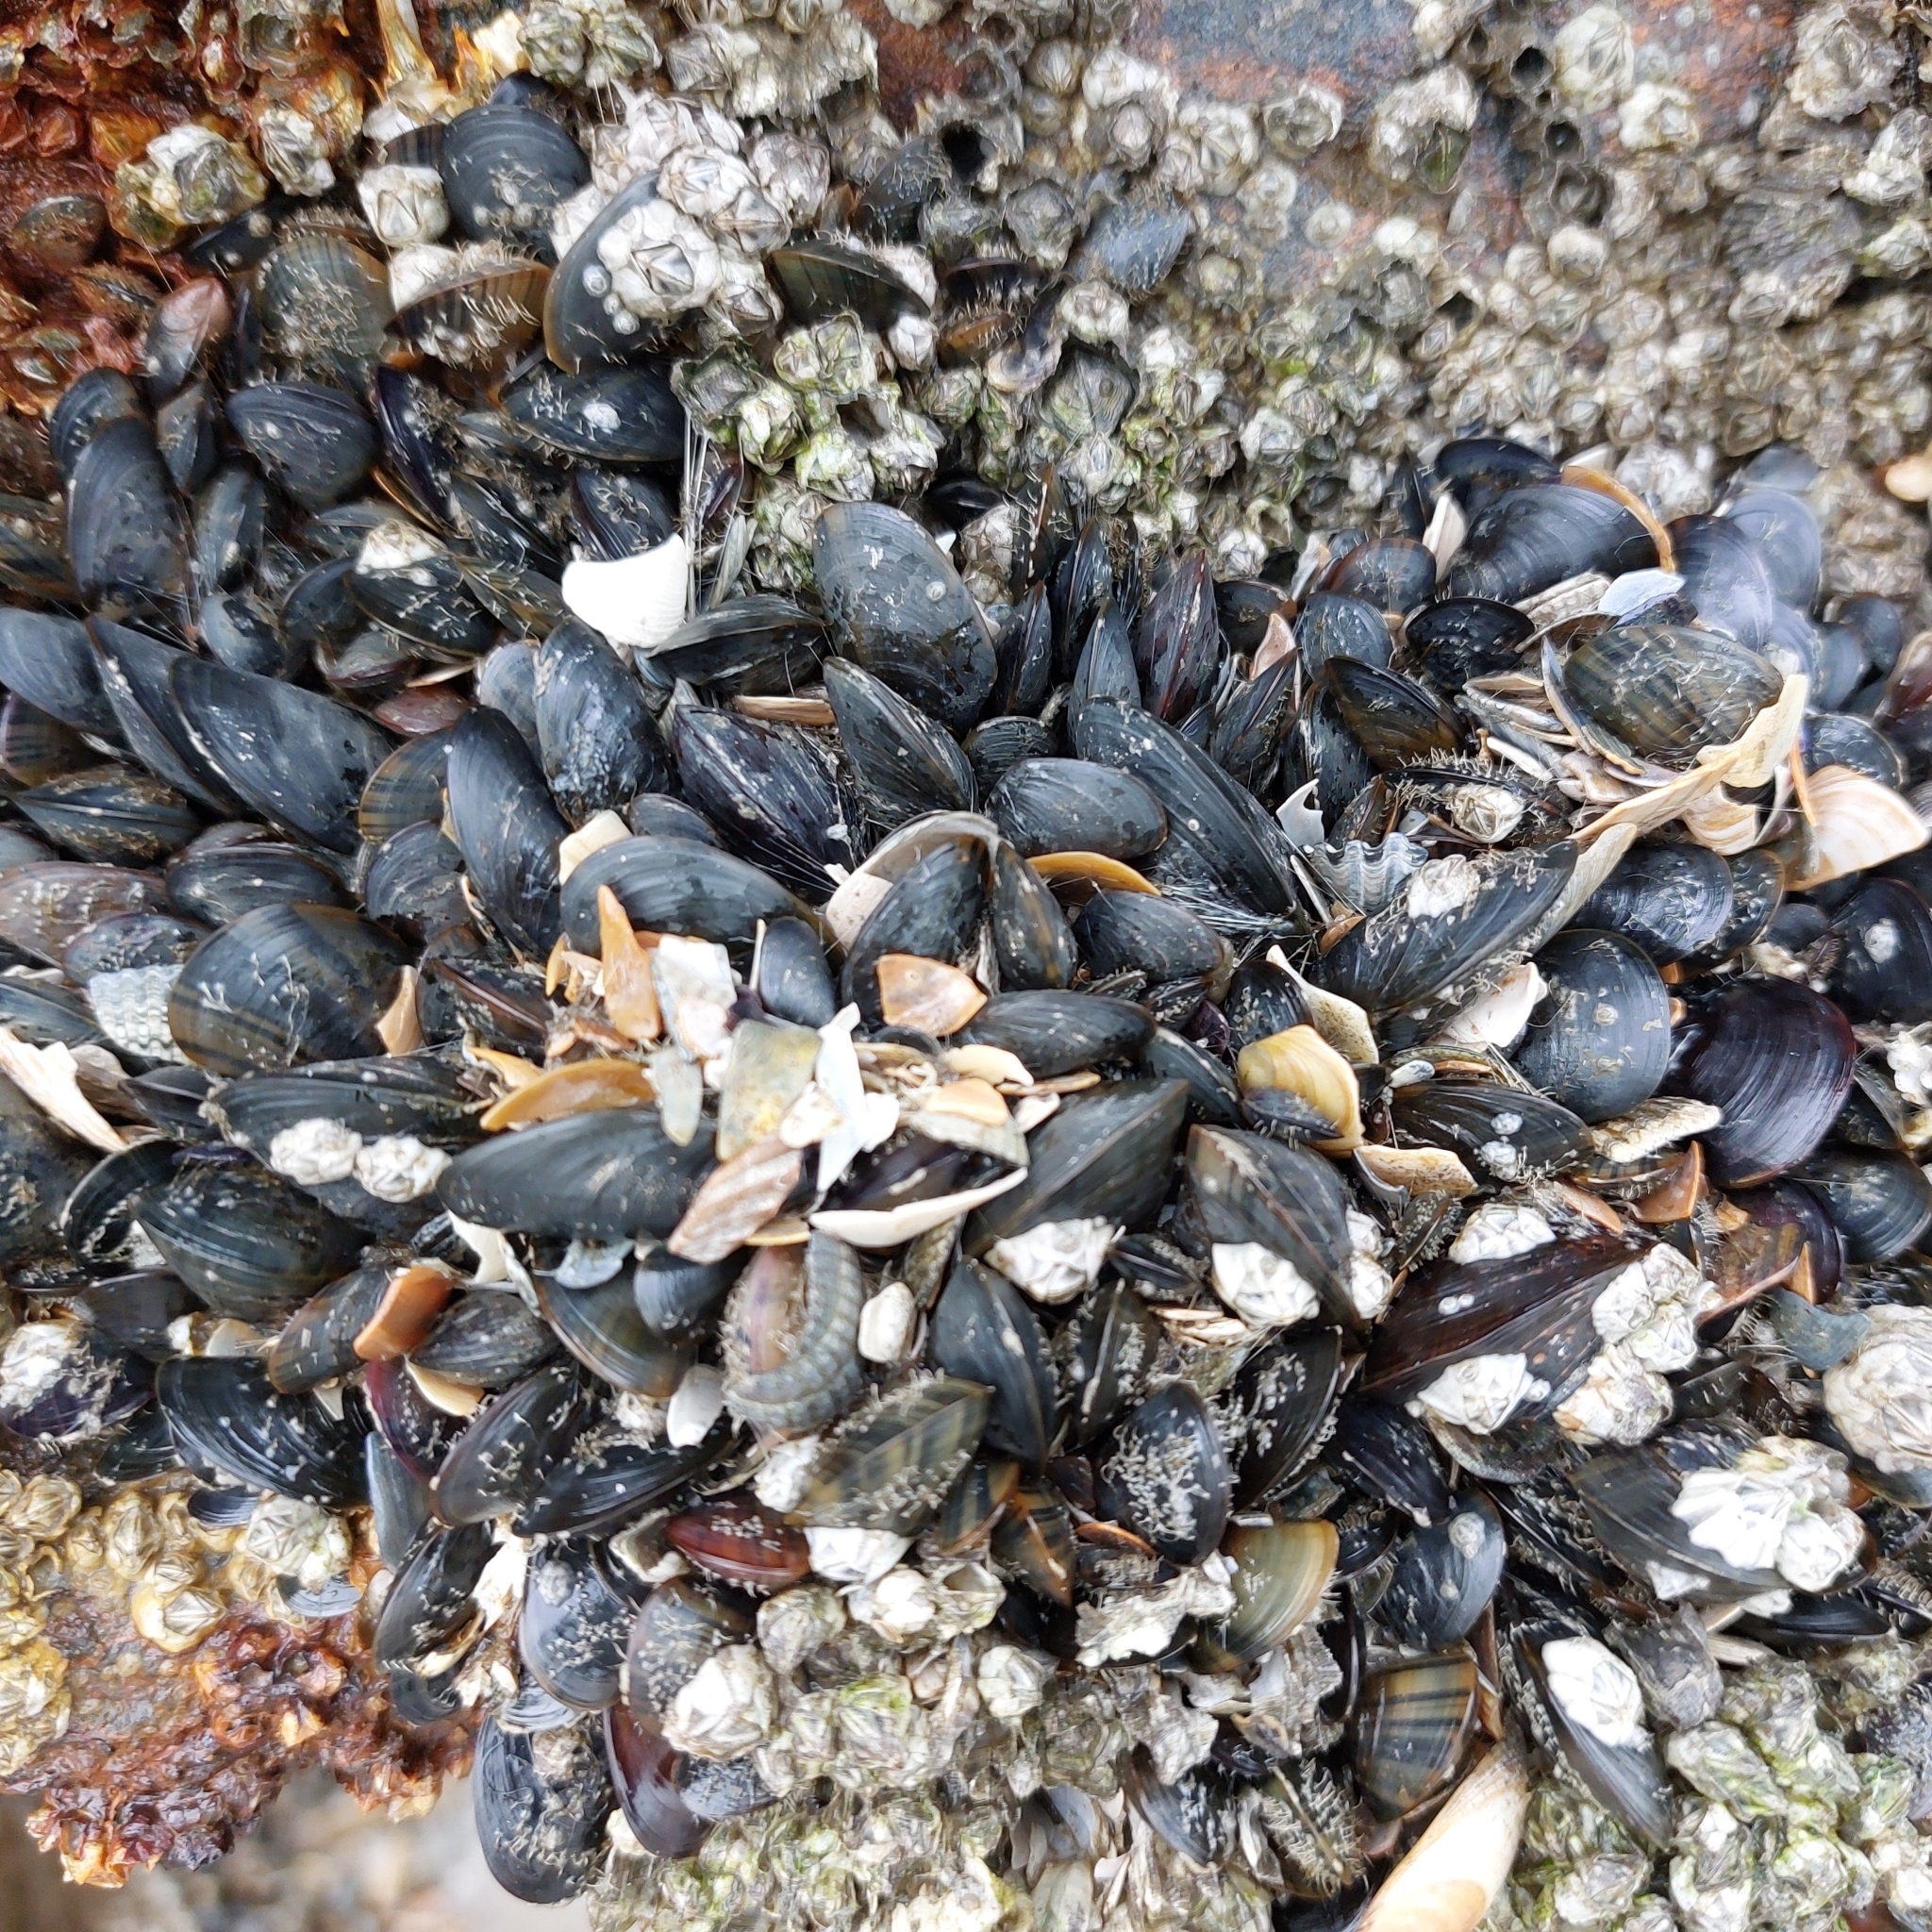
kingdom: Animalia
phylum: Mollusca
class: Bivalvia
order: Mytilida
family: Mytilidae
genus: Mytilus
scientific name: Mytilus edulis
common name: Blue mussel
